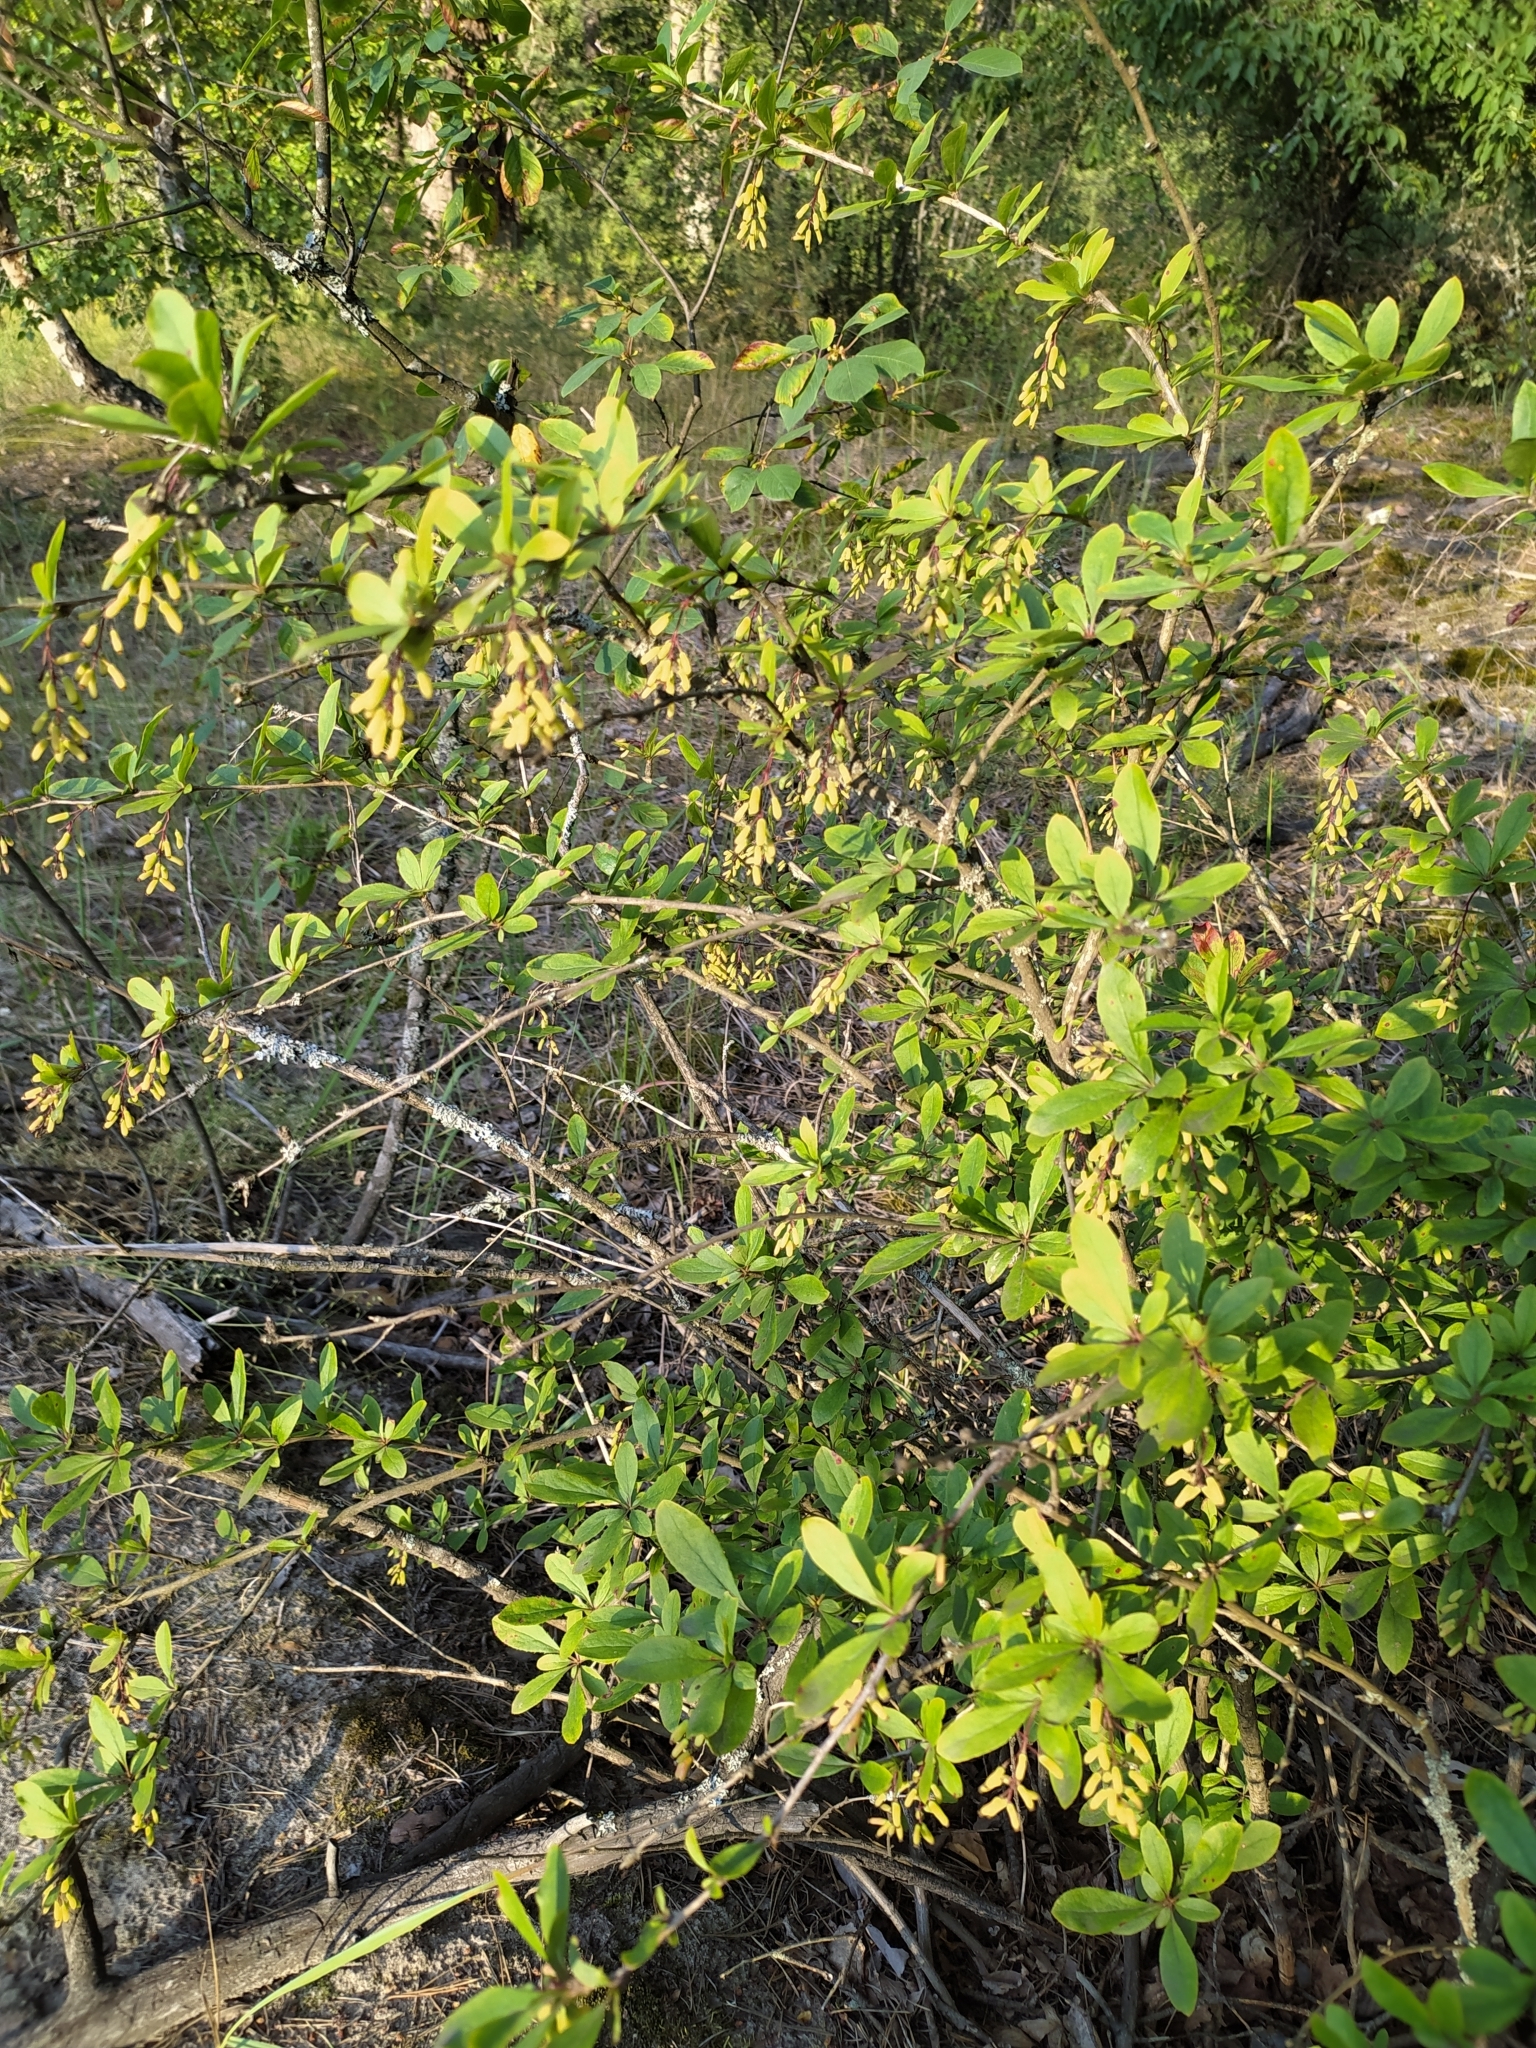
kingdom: Plantae
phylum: Tracheophyta
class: Magnoliopsida
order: Ranunculales
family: Berberidaceae
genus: Berberis
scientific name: Berberis vulgaris
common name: Barberry
